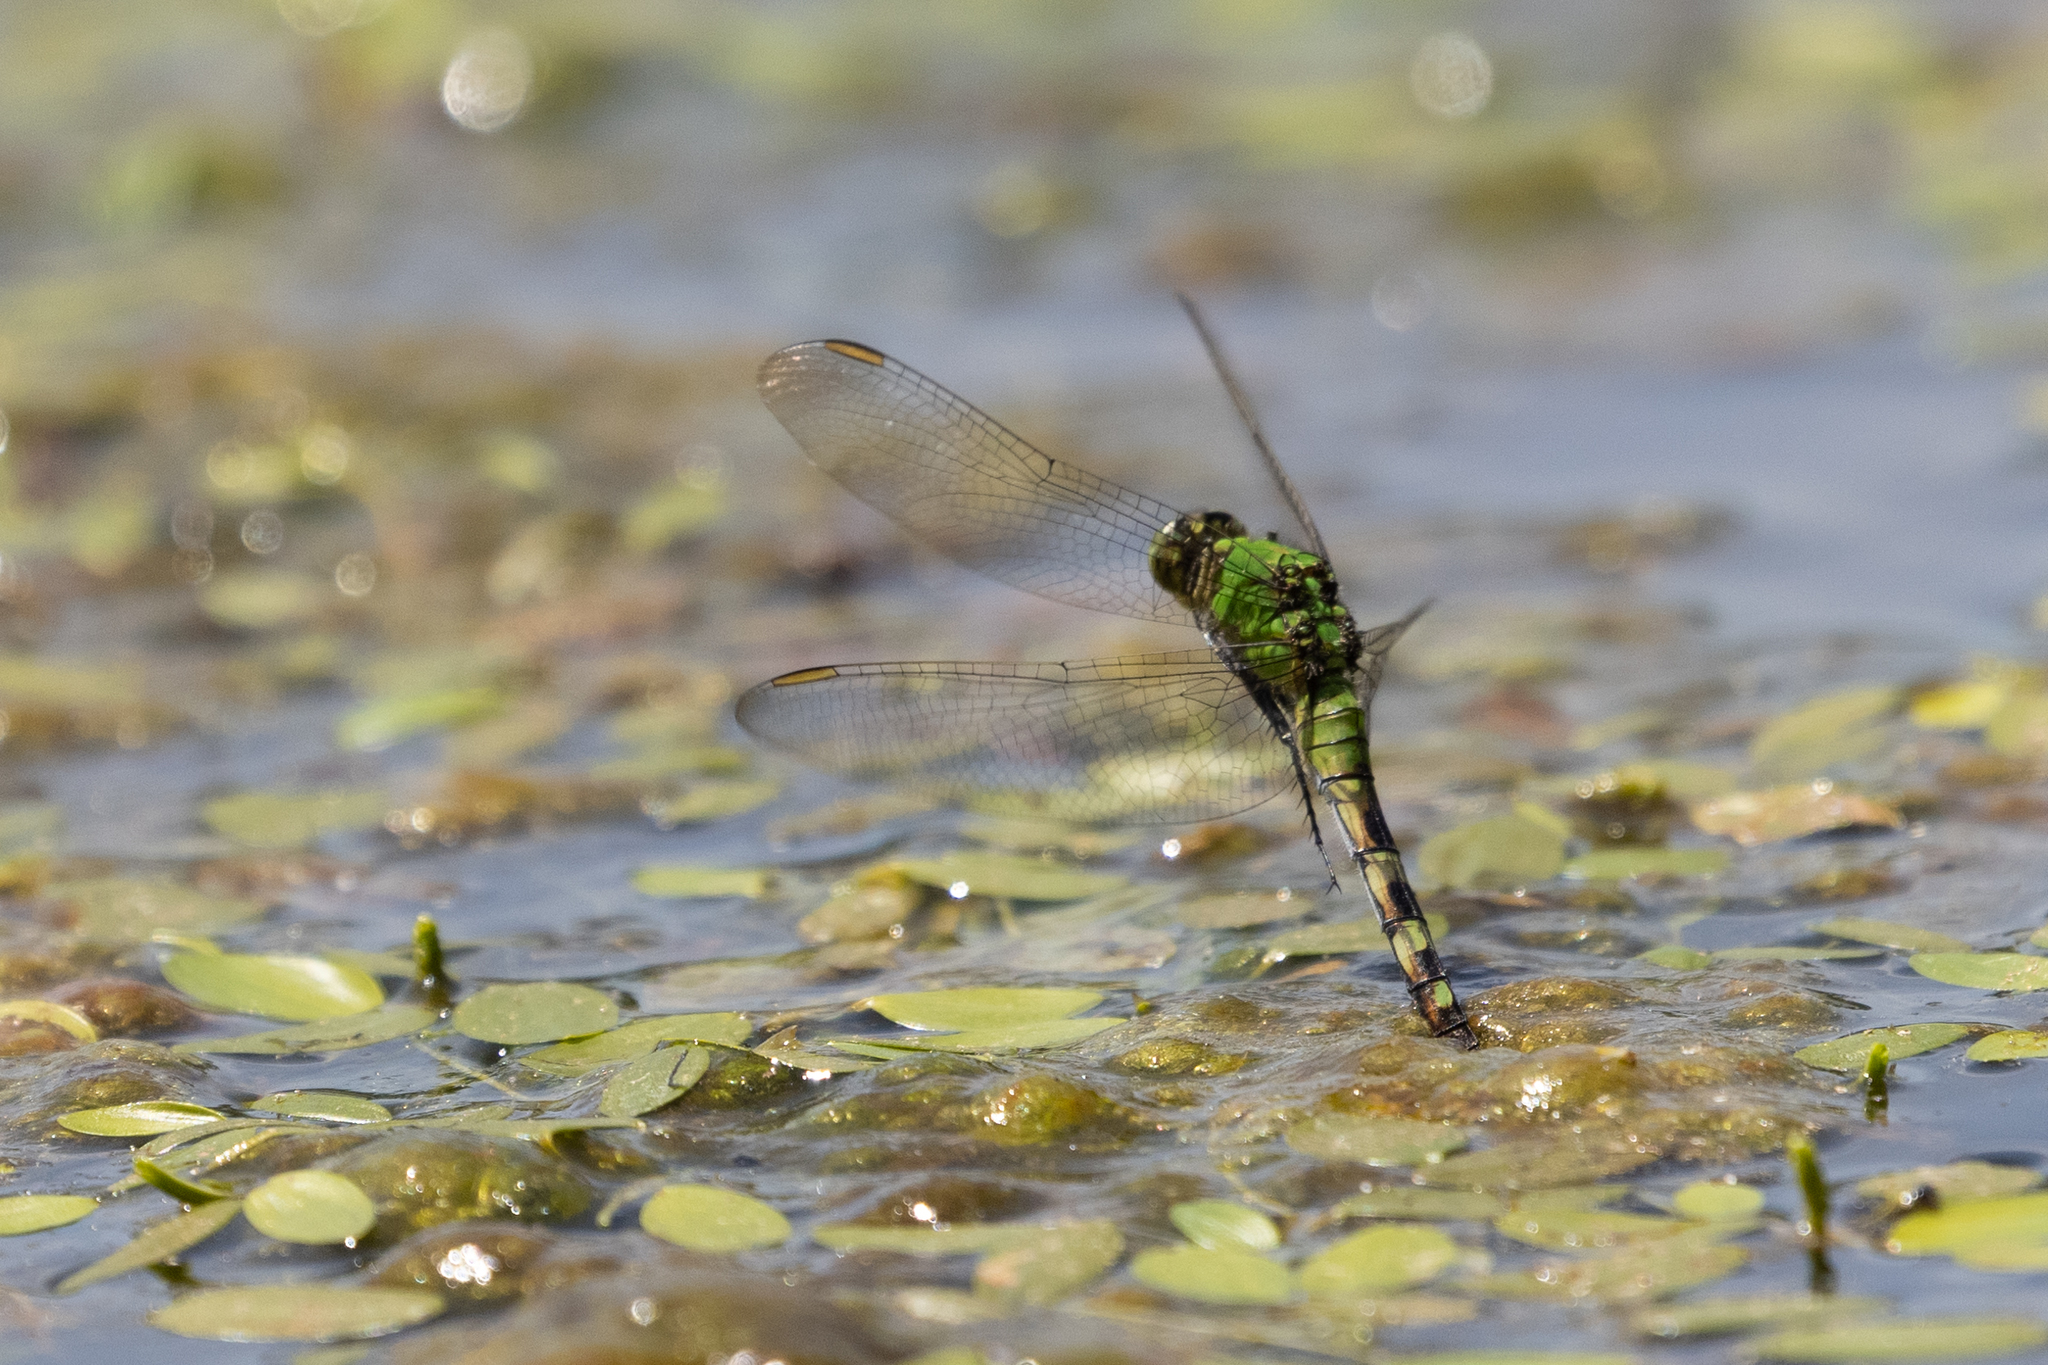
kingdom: Animalia
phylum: Arthropoda
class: Insecta
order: Odonata
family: Libellulidae
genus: Erythemis
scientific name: Erythemis simplicicollis
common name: Eastern pondhawk
